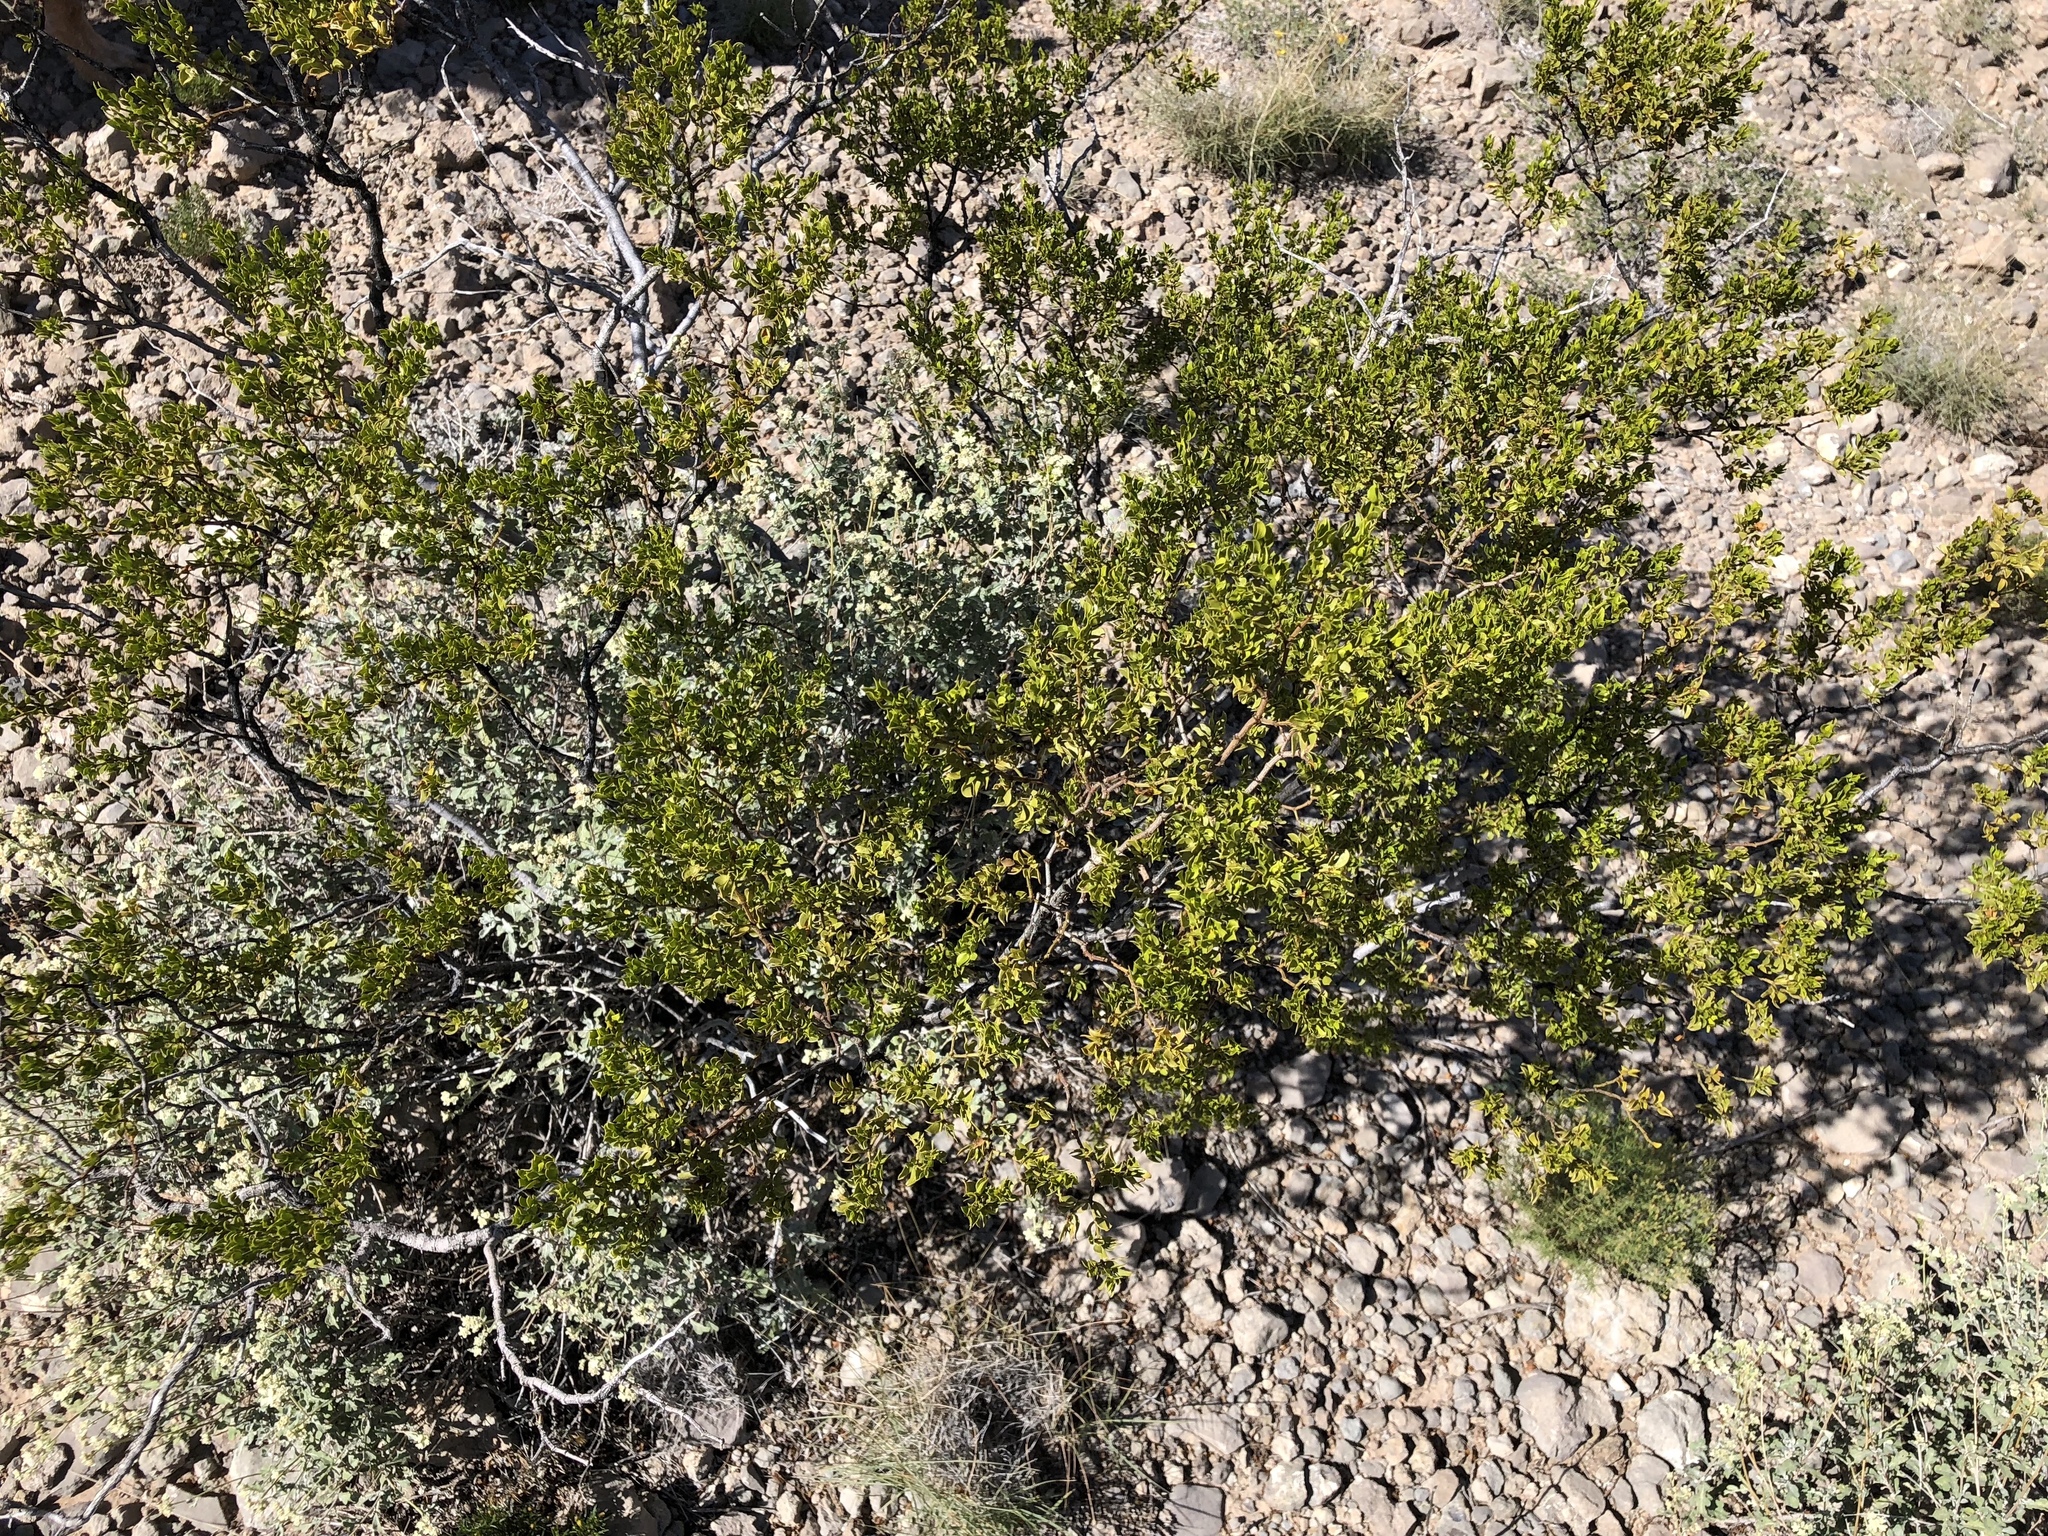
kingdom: Plantae
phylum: Tracheophyta
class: Magnoliopsida
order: Zygophyllales
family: Zygophyllaceae
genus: Larrea
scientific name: Larrea tridentata
